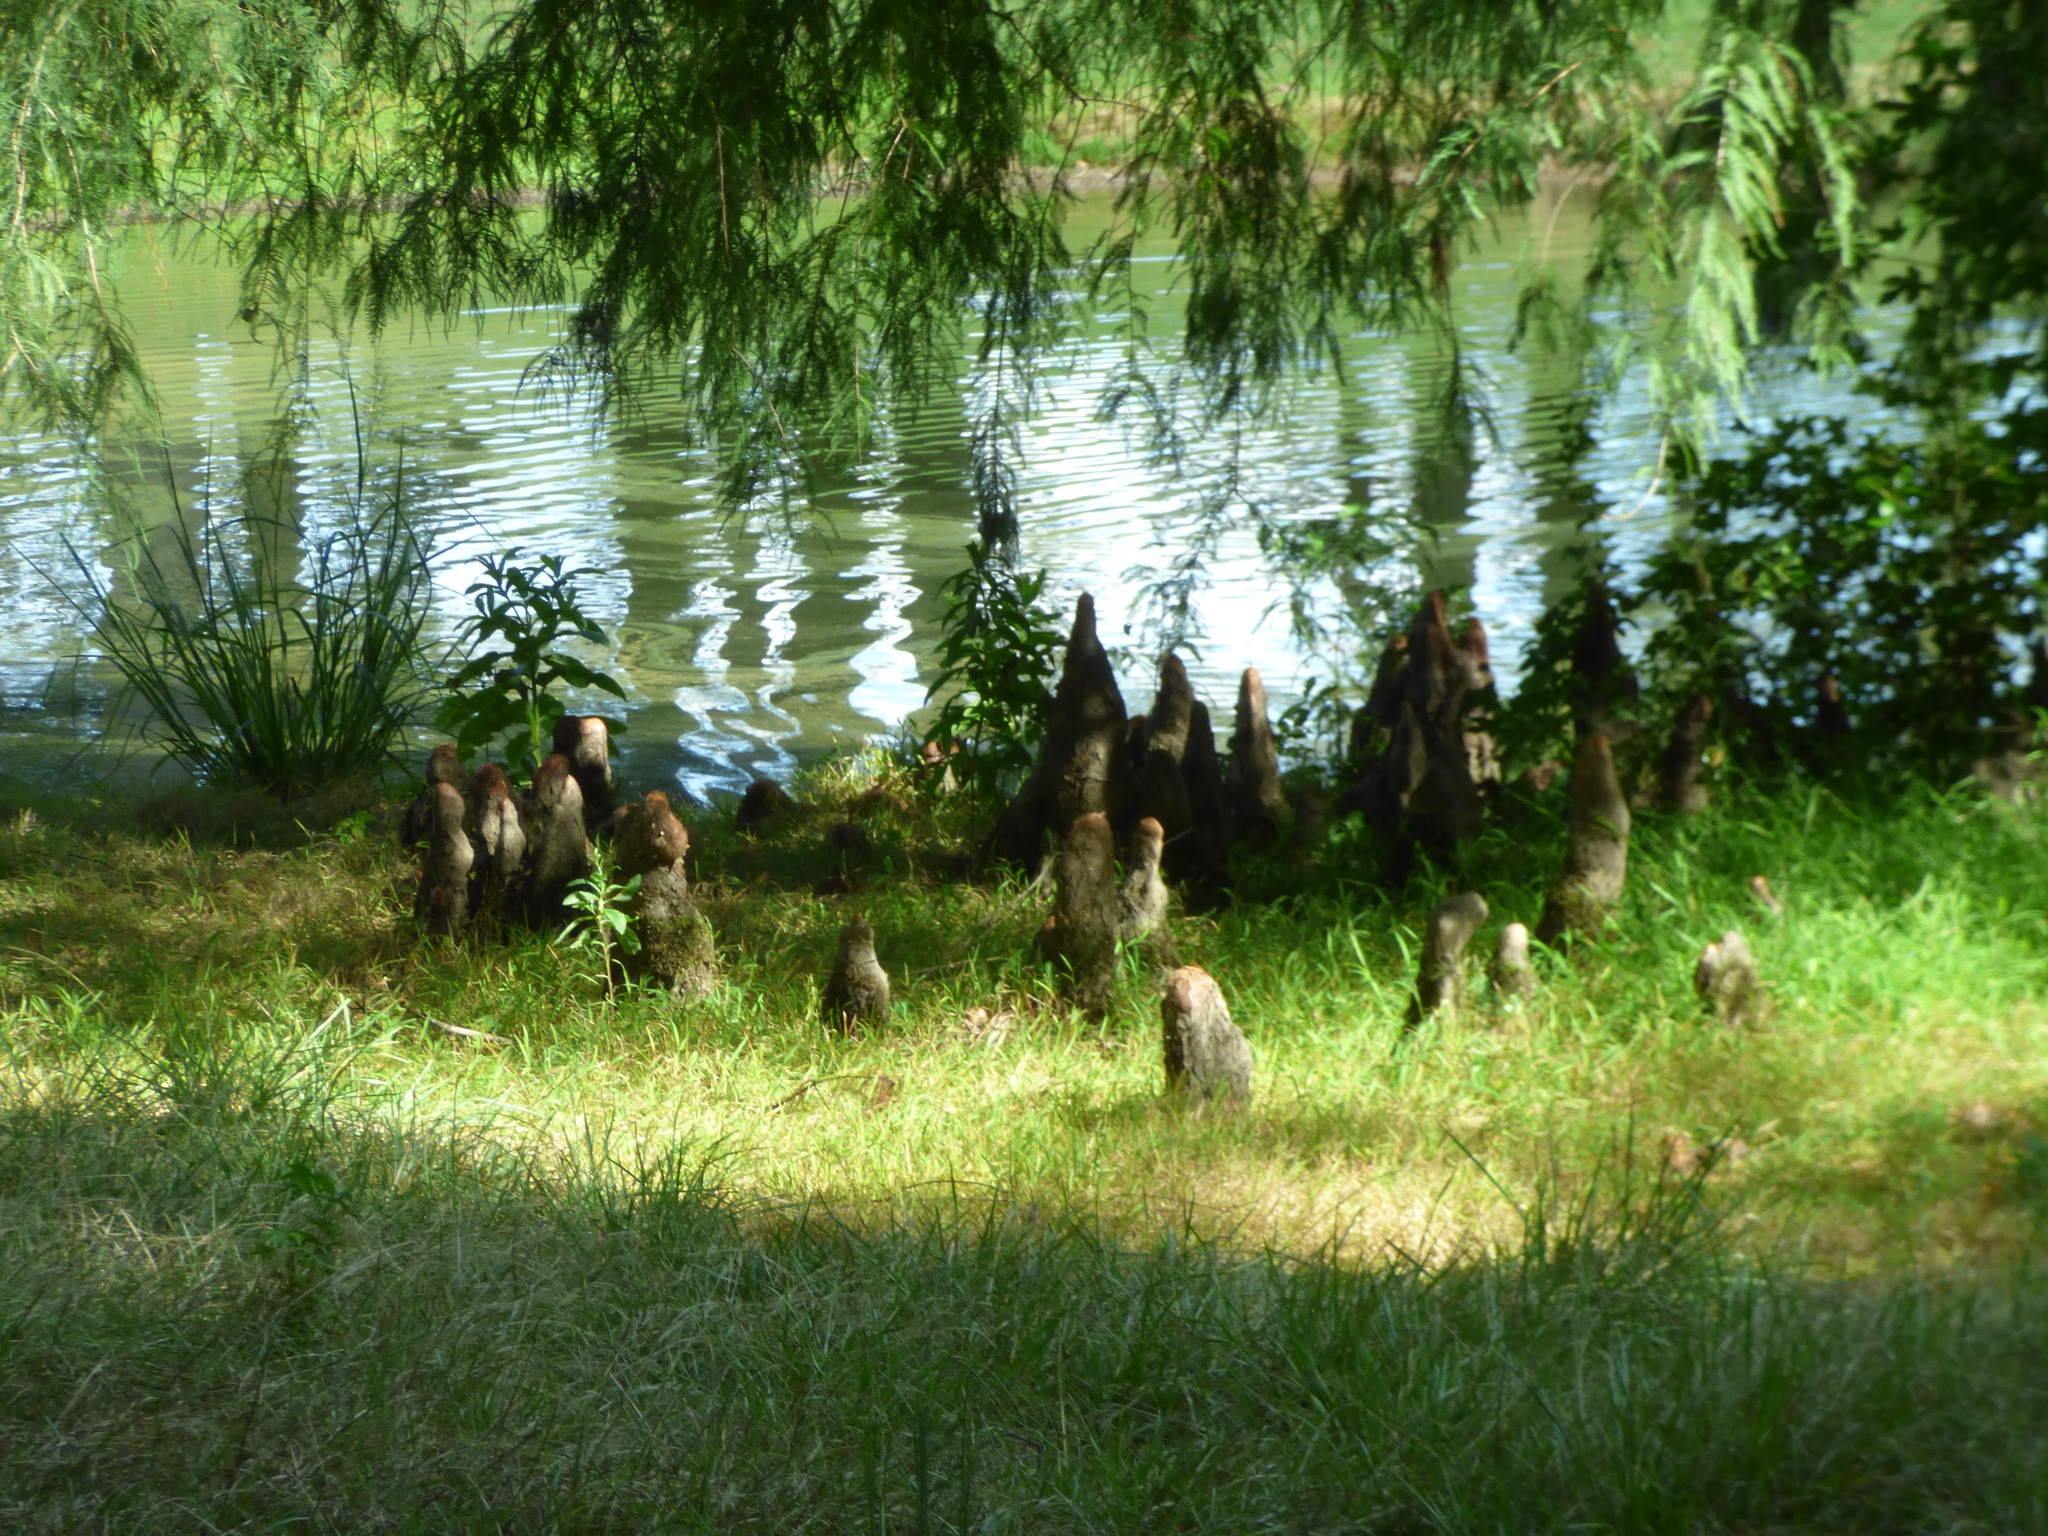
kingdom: Plantae
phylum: Tracheophyta
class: Pinopsida
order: Pinales
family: Cupressaceae
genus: Taxodium
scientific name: Taxodium distichum
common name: Bald cypress
